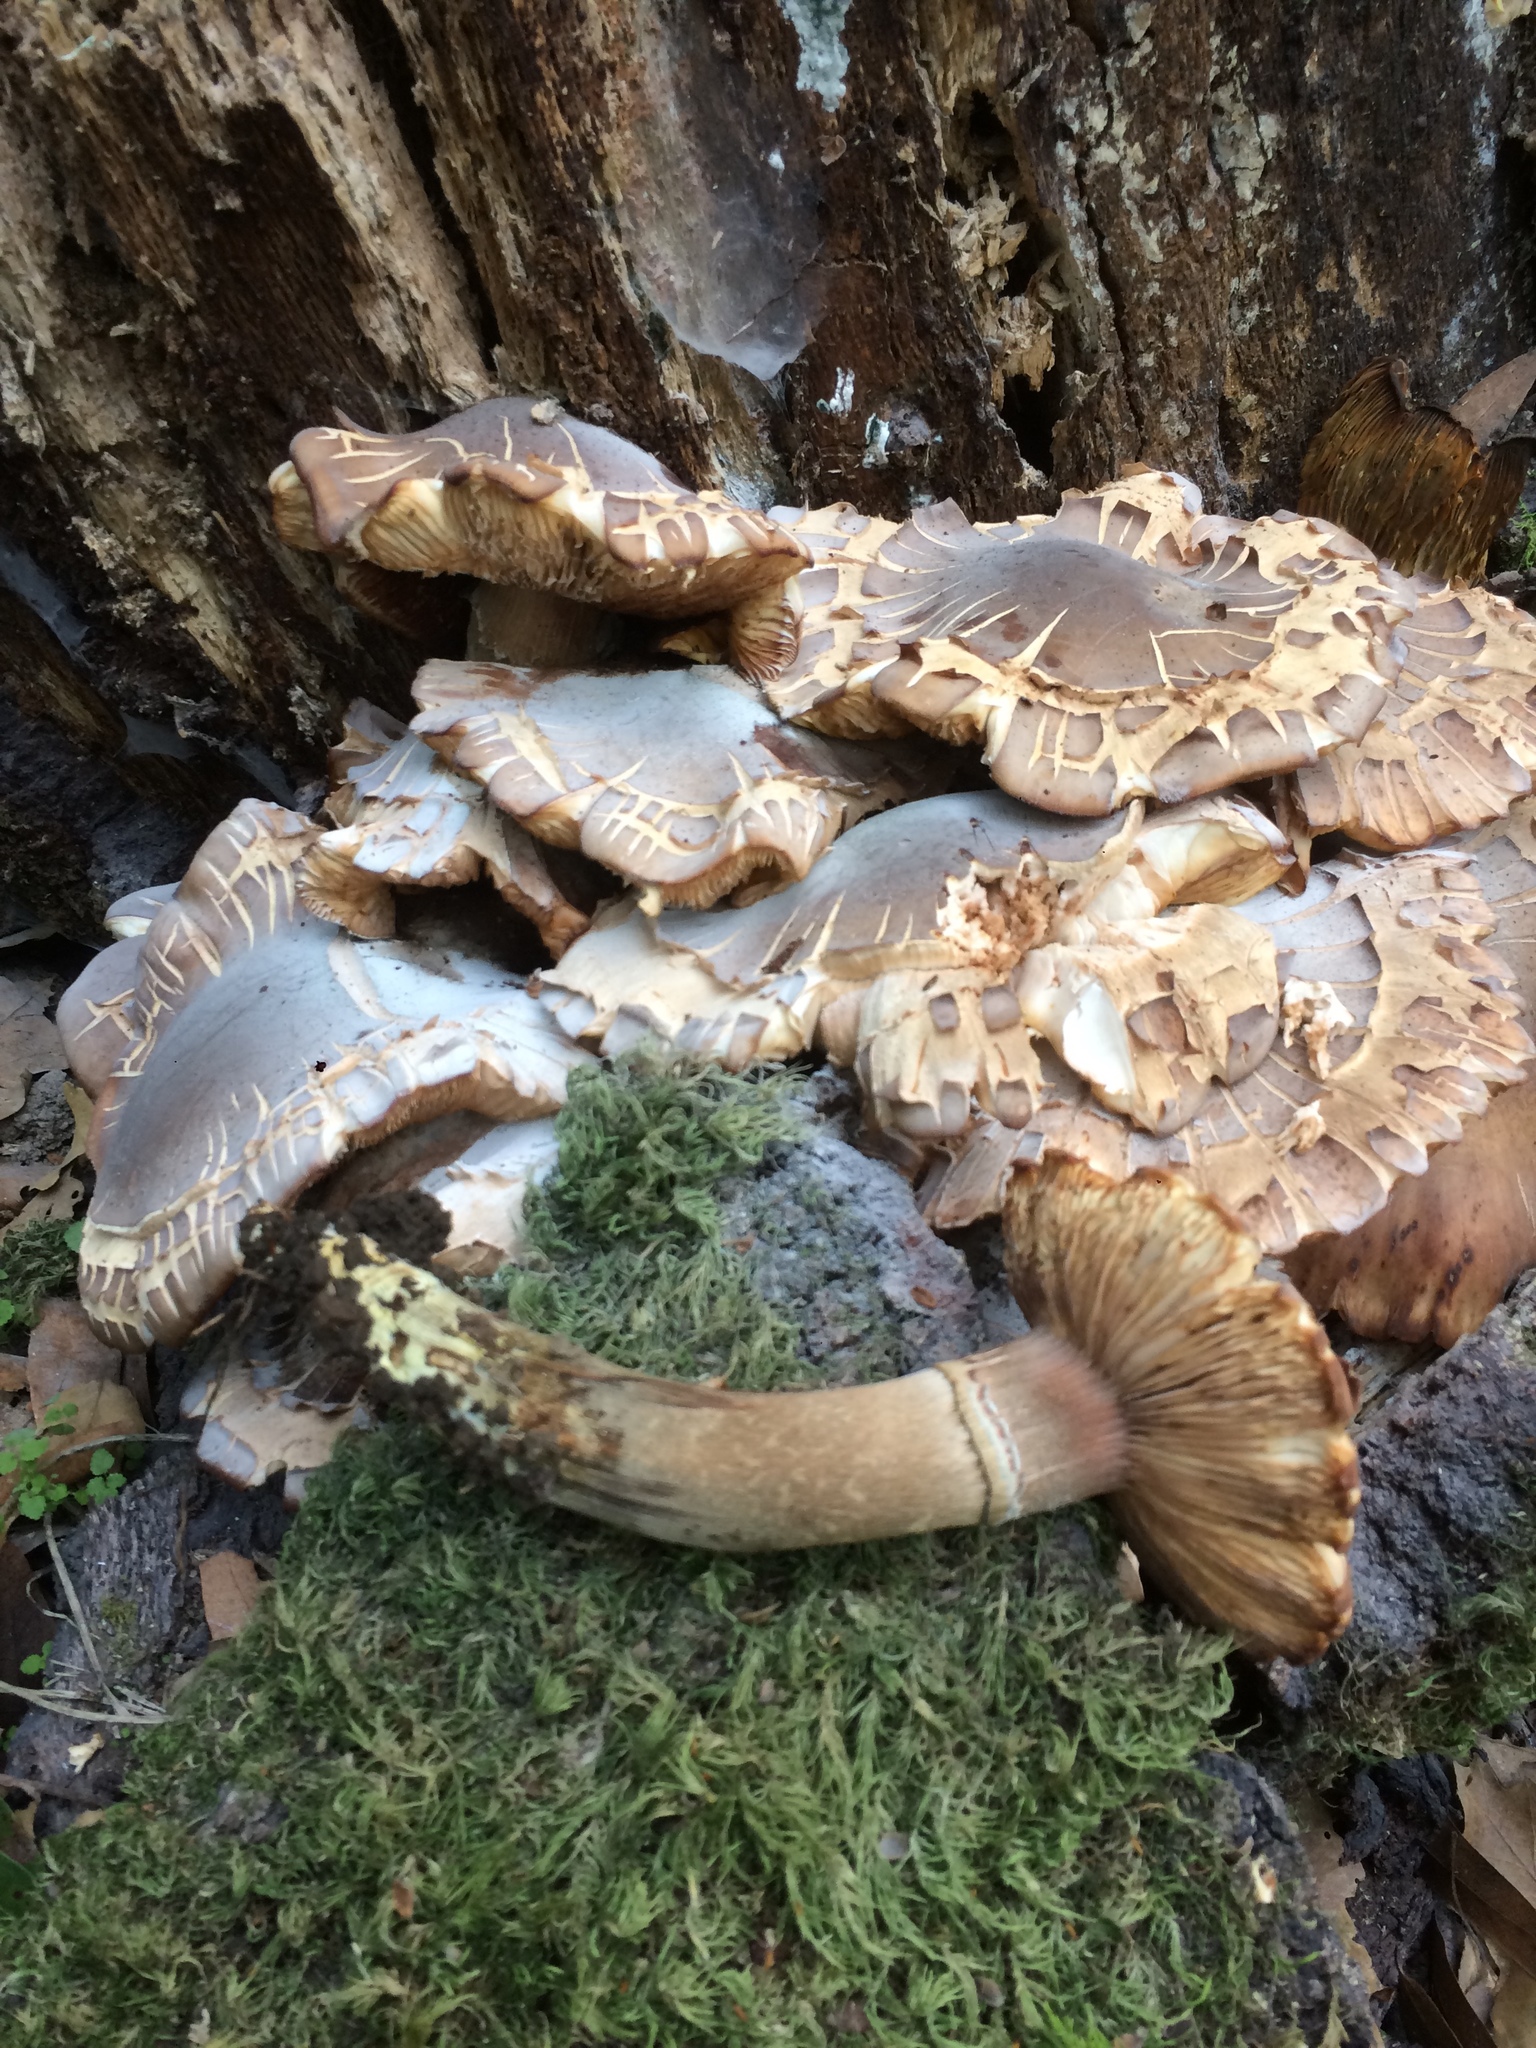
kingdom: Fungi
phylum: Basidiomycota
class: Agaricomycetes
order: Agaricales
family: Physalacriaceae
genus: Armillaria
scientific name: Armillaria mellea
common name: Honey fungus
